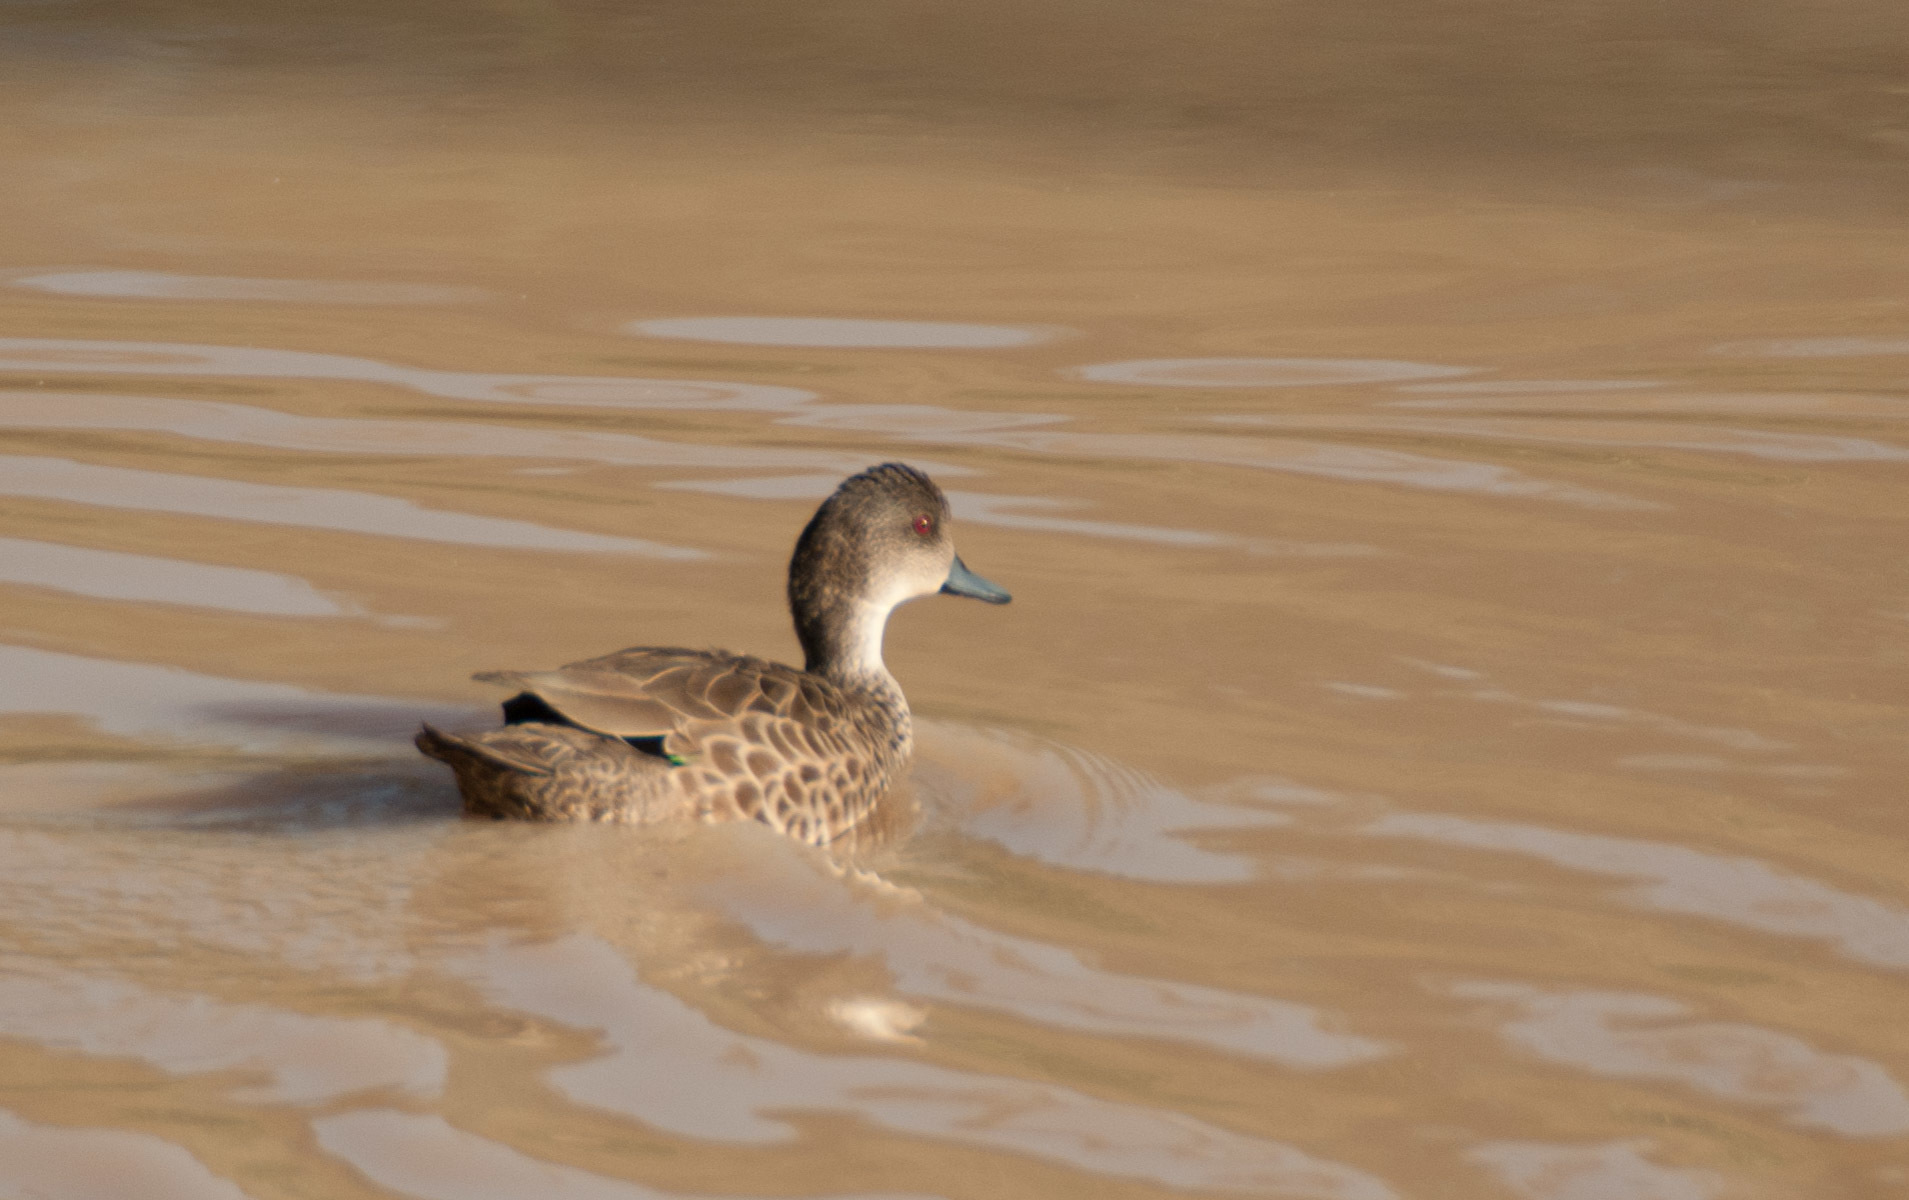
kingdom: Animalia
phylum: Chordata
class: Aves
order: Anseriformes
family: Anatidae
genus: Anas
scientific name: Anas gracilis
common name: Grey teal
